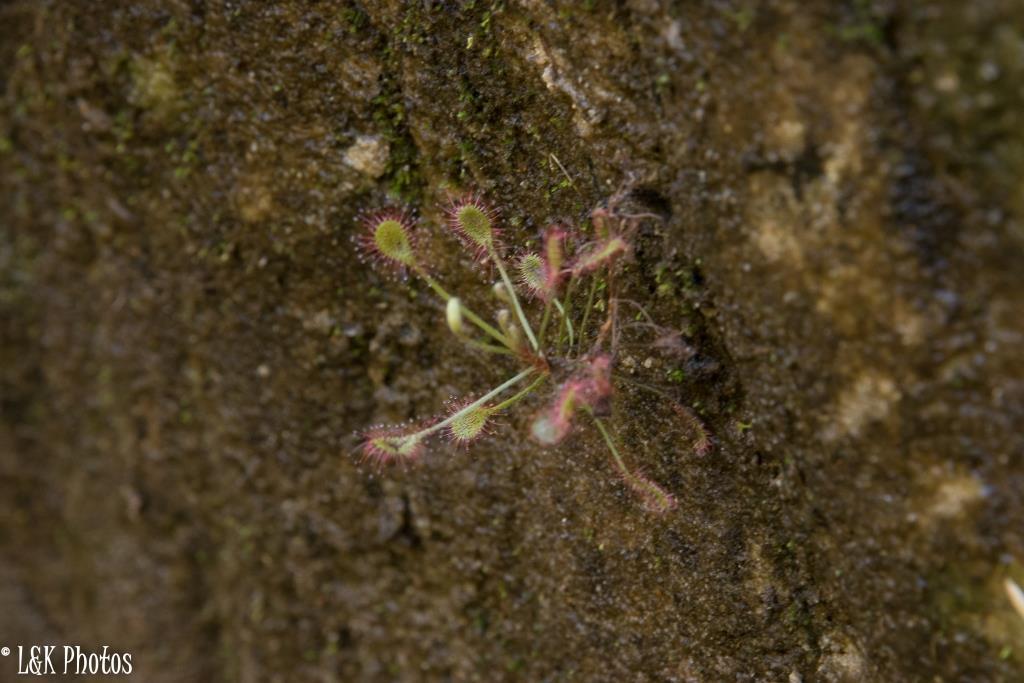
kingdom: Plantae
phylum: Tracheophyta
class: Magnoliopsida
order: Caryophyllales
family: Droseraceae
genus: Drosera
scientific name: Drosera madagascariensis
